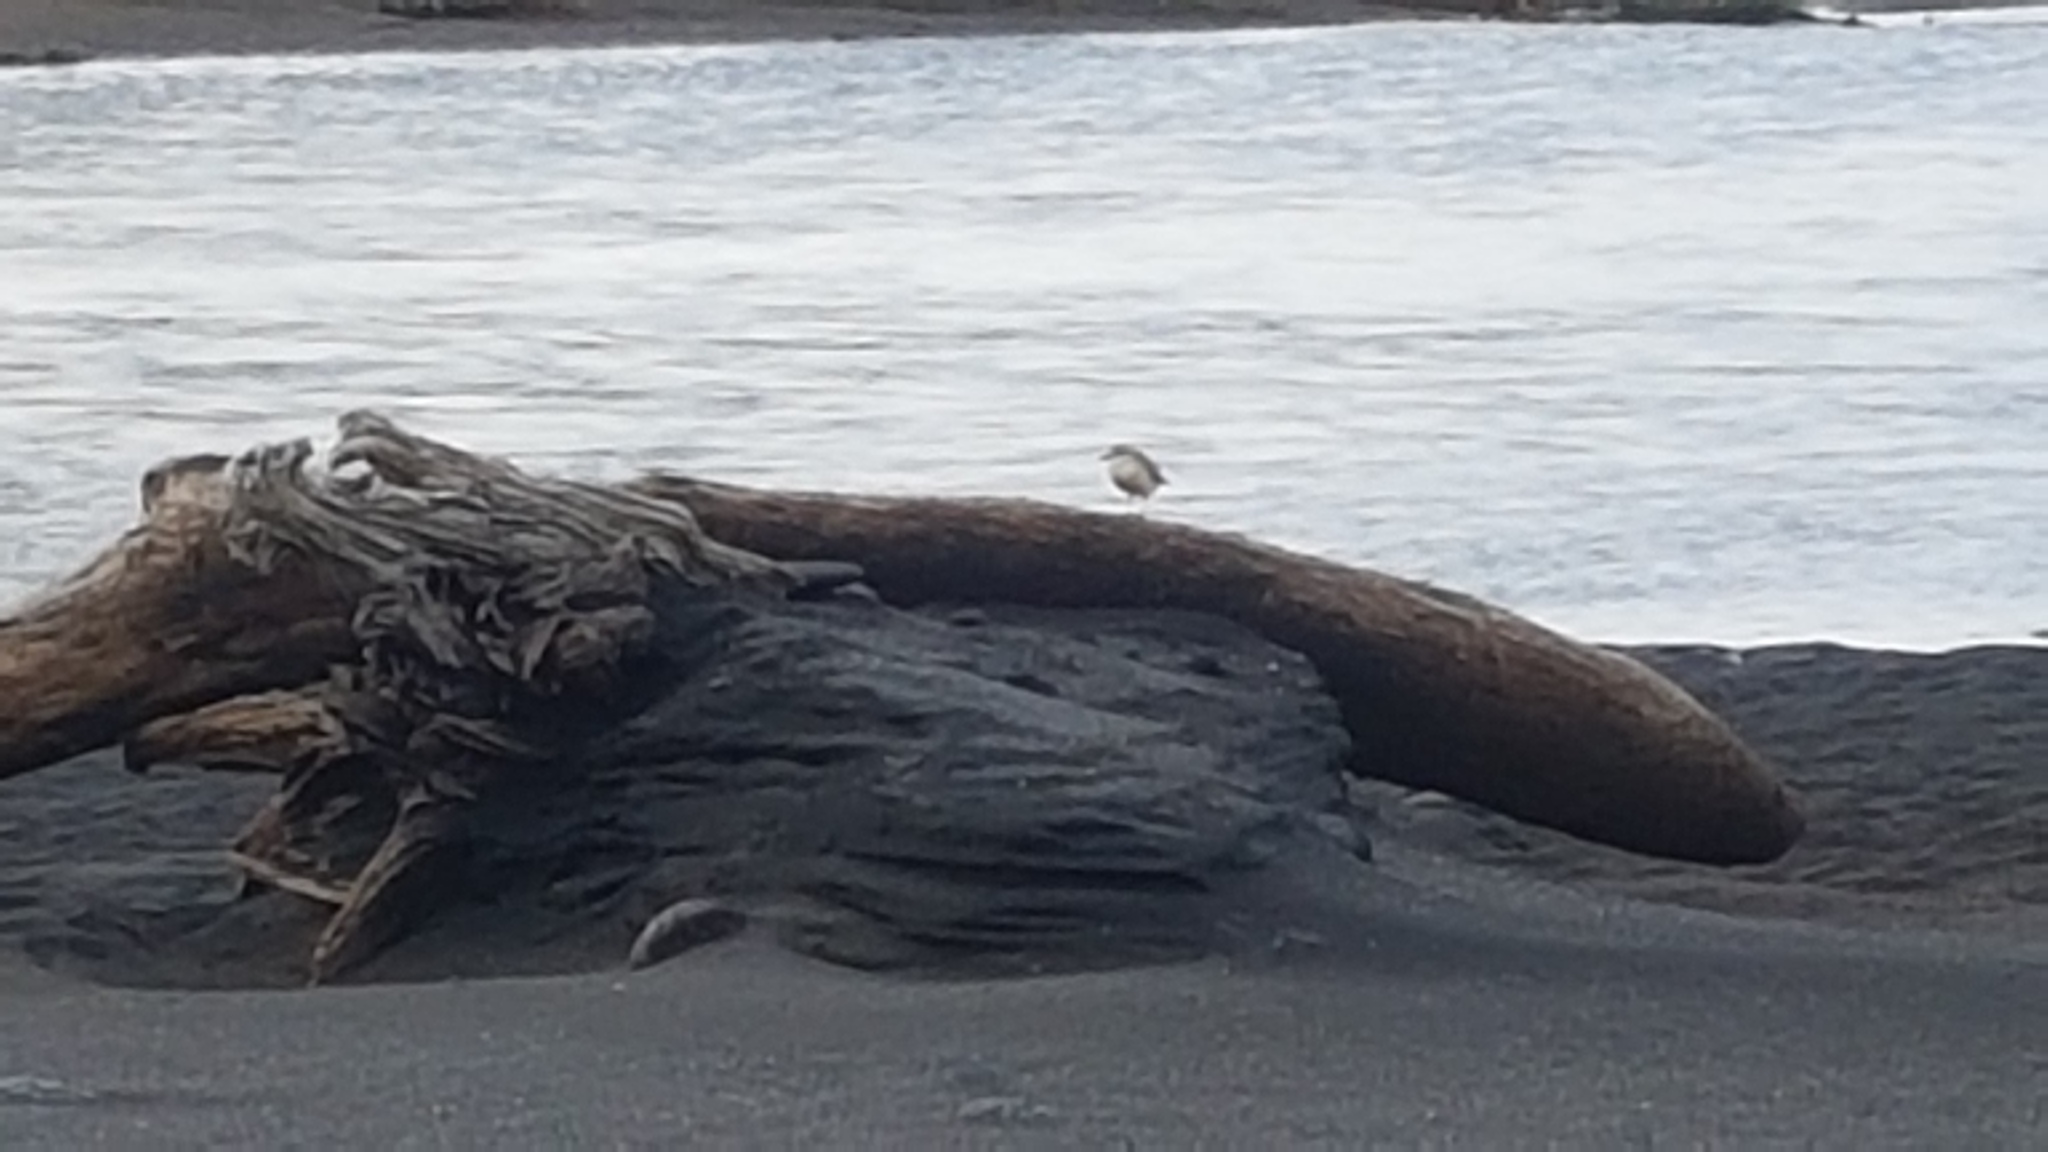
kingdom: Animalia
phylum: Chordata
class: Aves
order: Charadriiformes
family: Charadriidae
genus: Anarhynchus
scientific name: Anarhynchus
